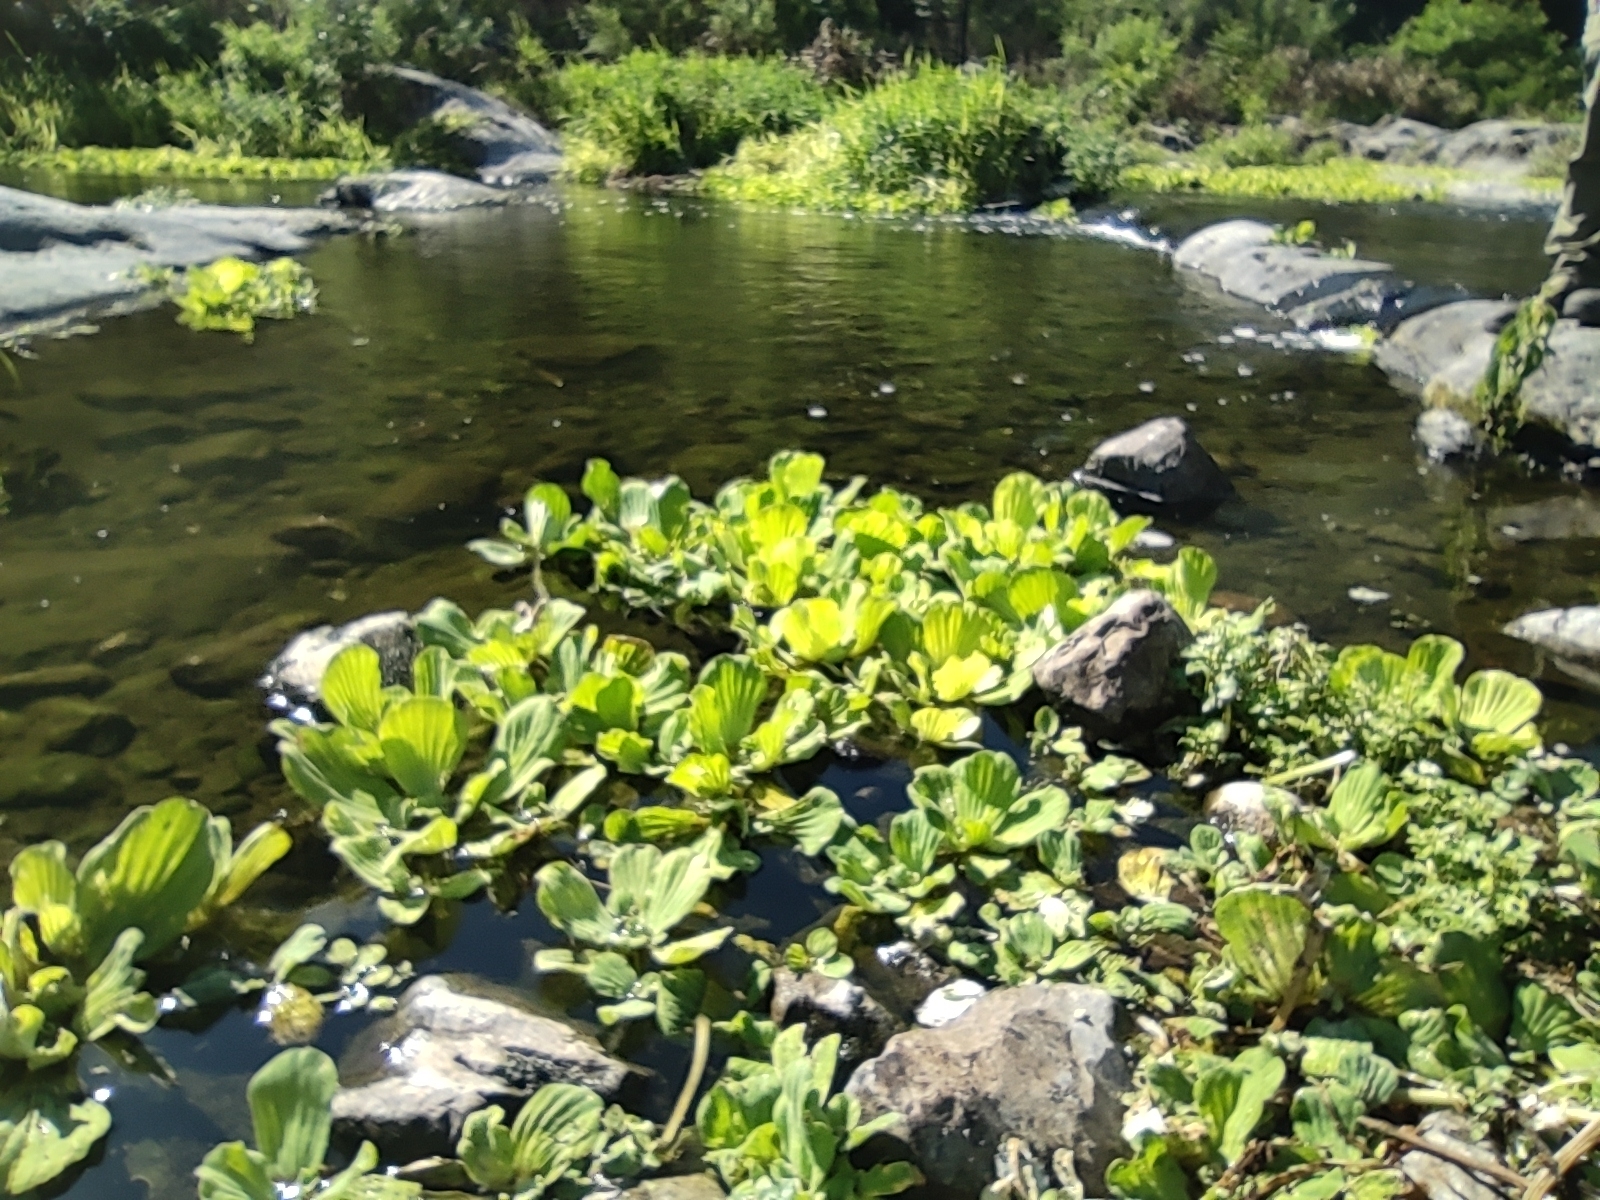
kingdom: Plantae
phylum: Tracheophyta
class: Liliopsida
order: Alismatales
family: Araceae
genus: Pistia
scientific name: Pistia stratiotes
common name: Water lettuce
